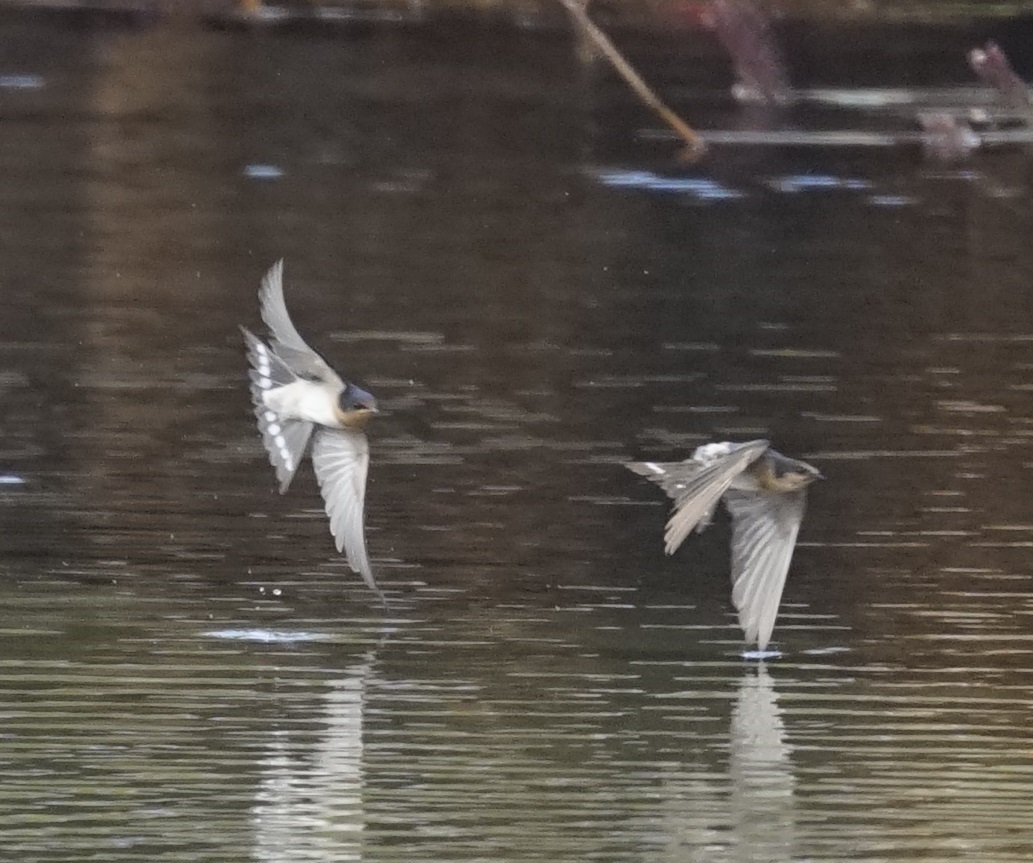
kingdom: Animalia
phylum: Chordata
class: Aves
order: Passeriformes
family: Hirundinidae
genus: Hirundo
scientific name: Hirundo neoxena
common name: Welcome swallow
